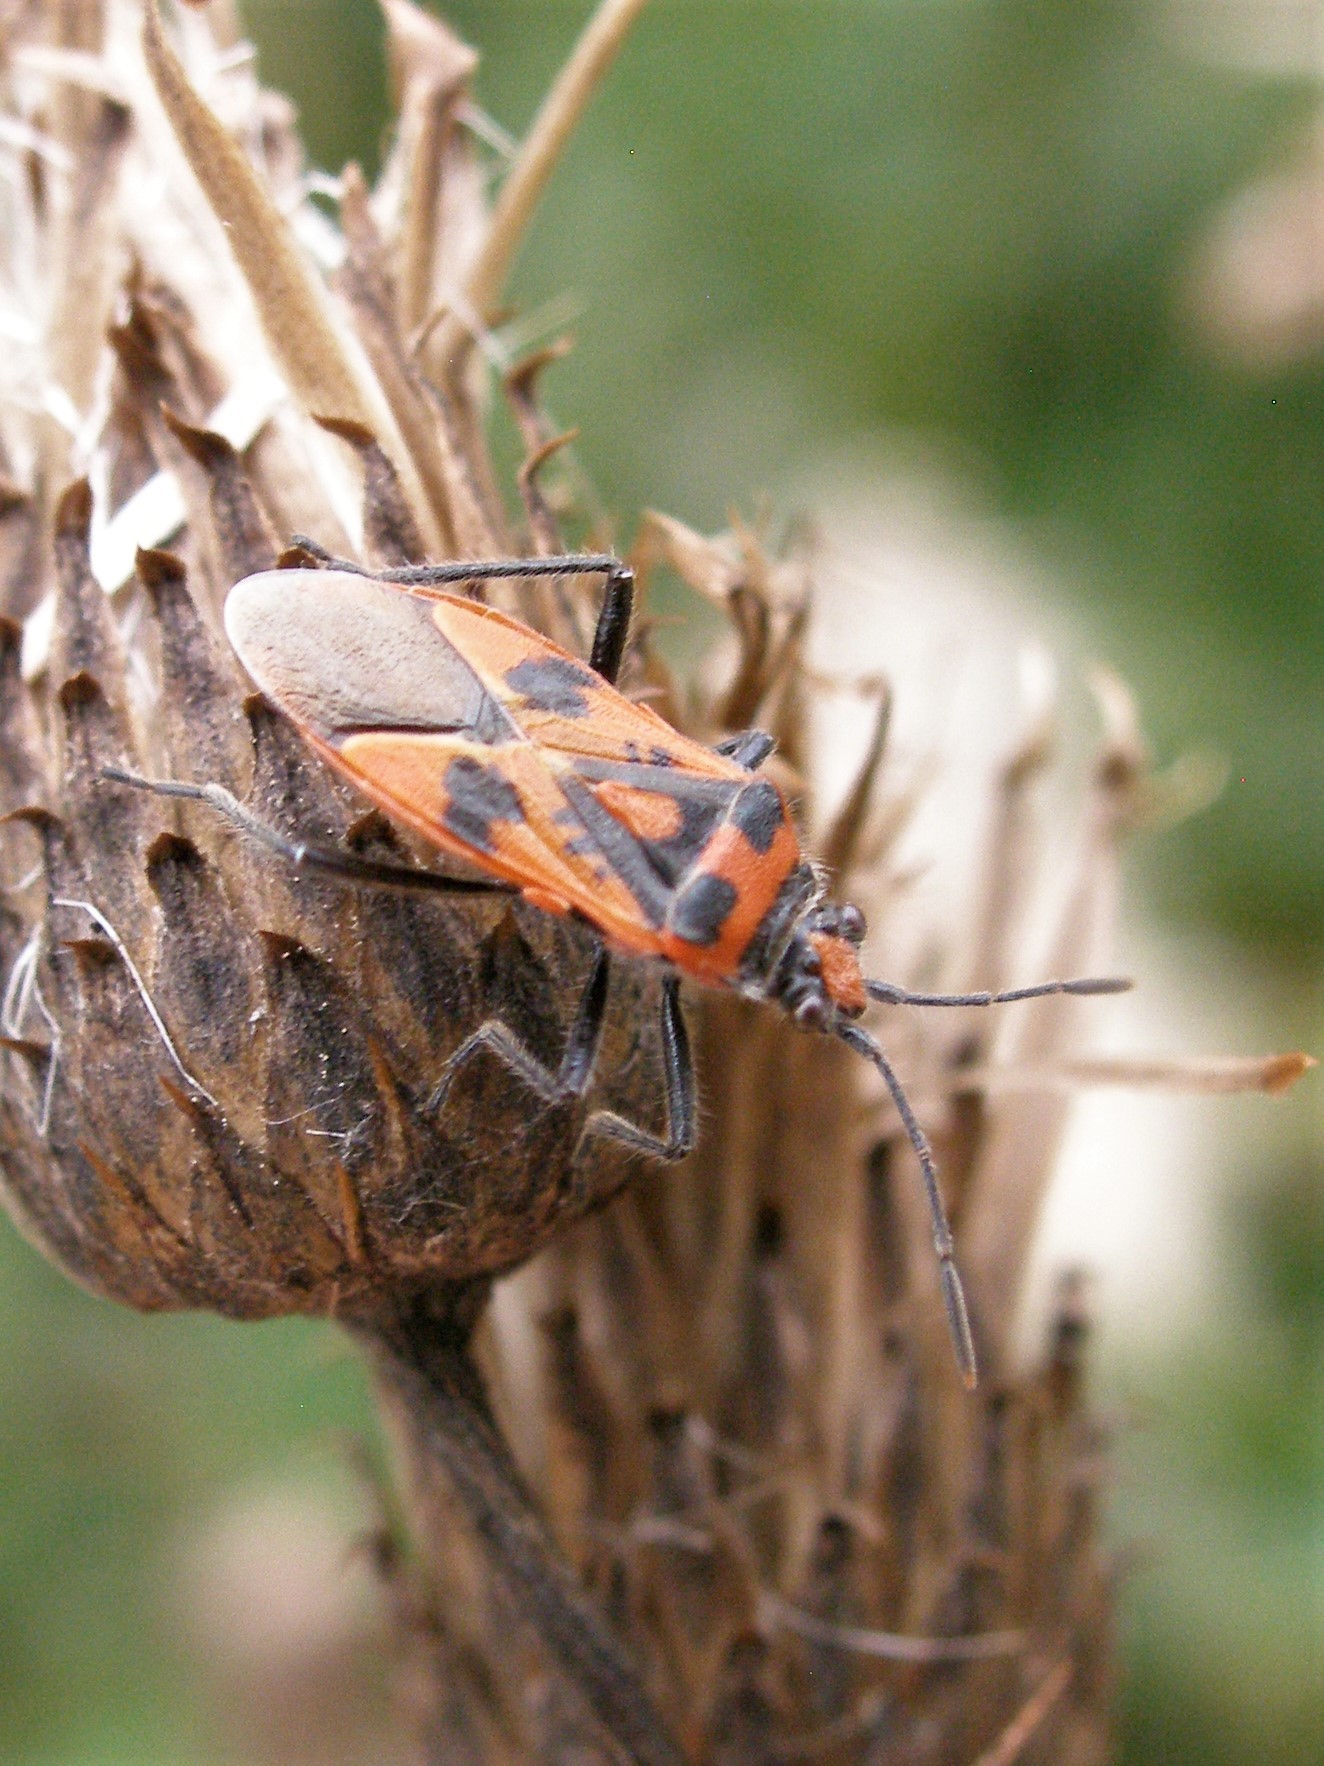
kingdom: Animalia
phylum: Arthropoda
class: Insecta
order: Hemiptera
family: Rhopalidae
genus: Corizus
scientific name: Corizus hyoscyami
